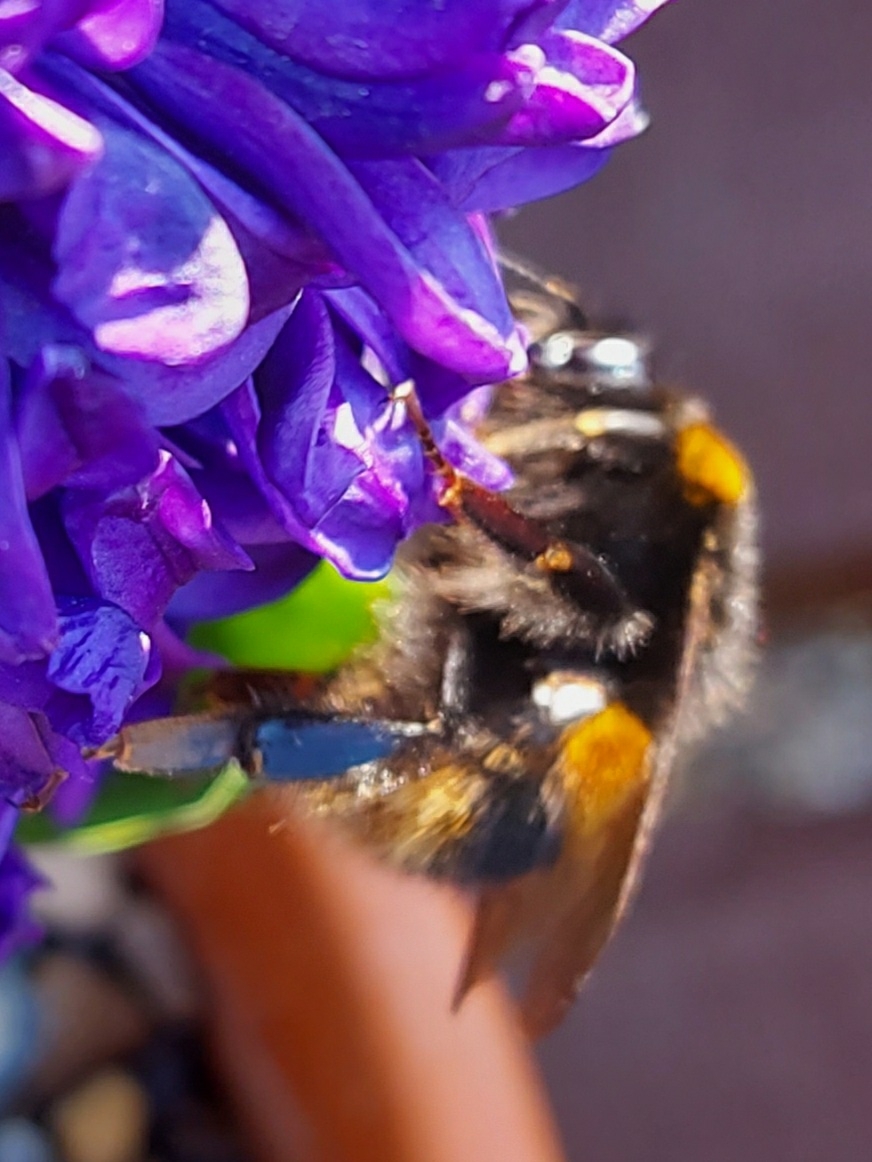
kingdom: Animalia
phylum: Arthropoda
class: Insecta
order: Hymenoptera
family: Apidae
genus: Bombus
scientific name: Bombus terrestris
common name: Buff-tailed bumblebee
